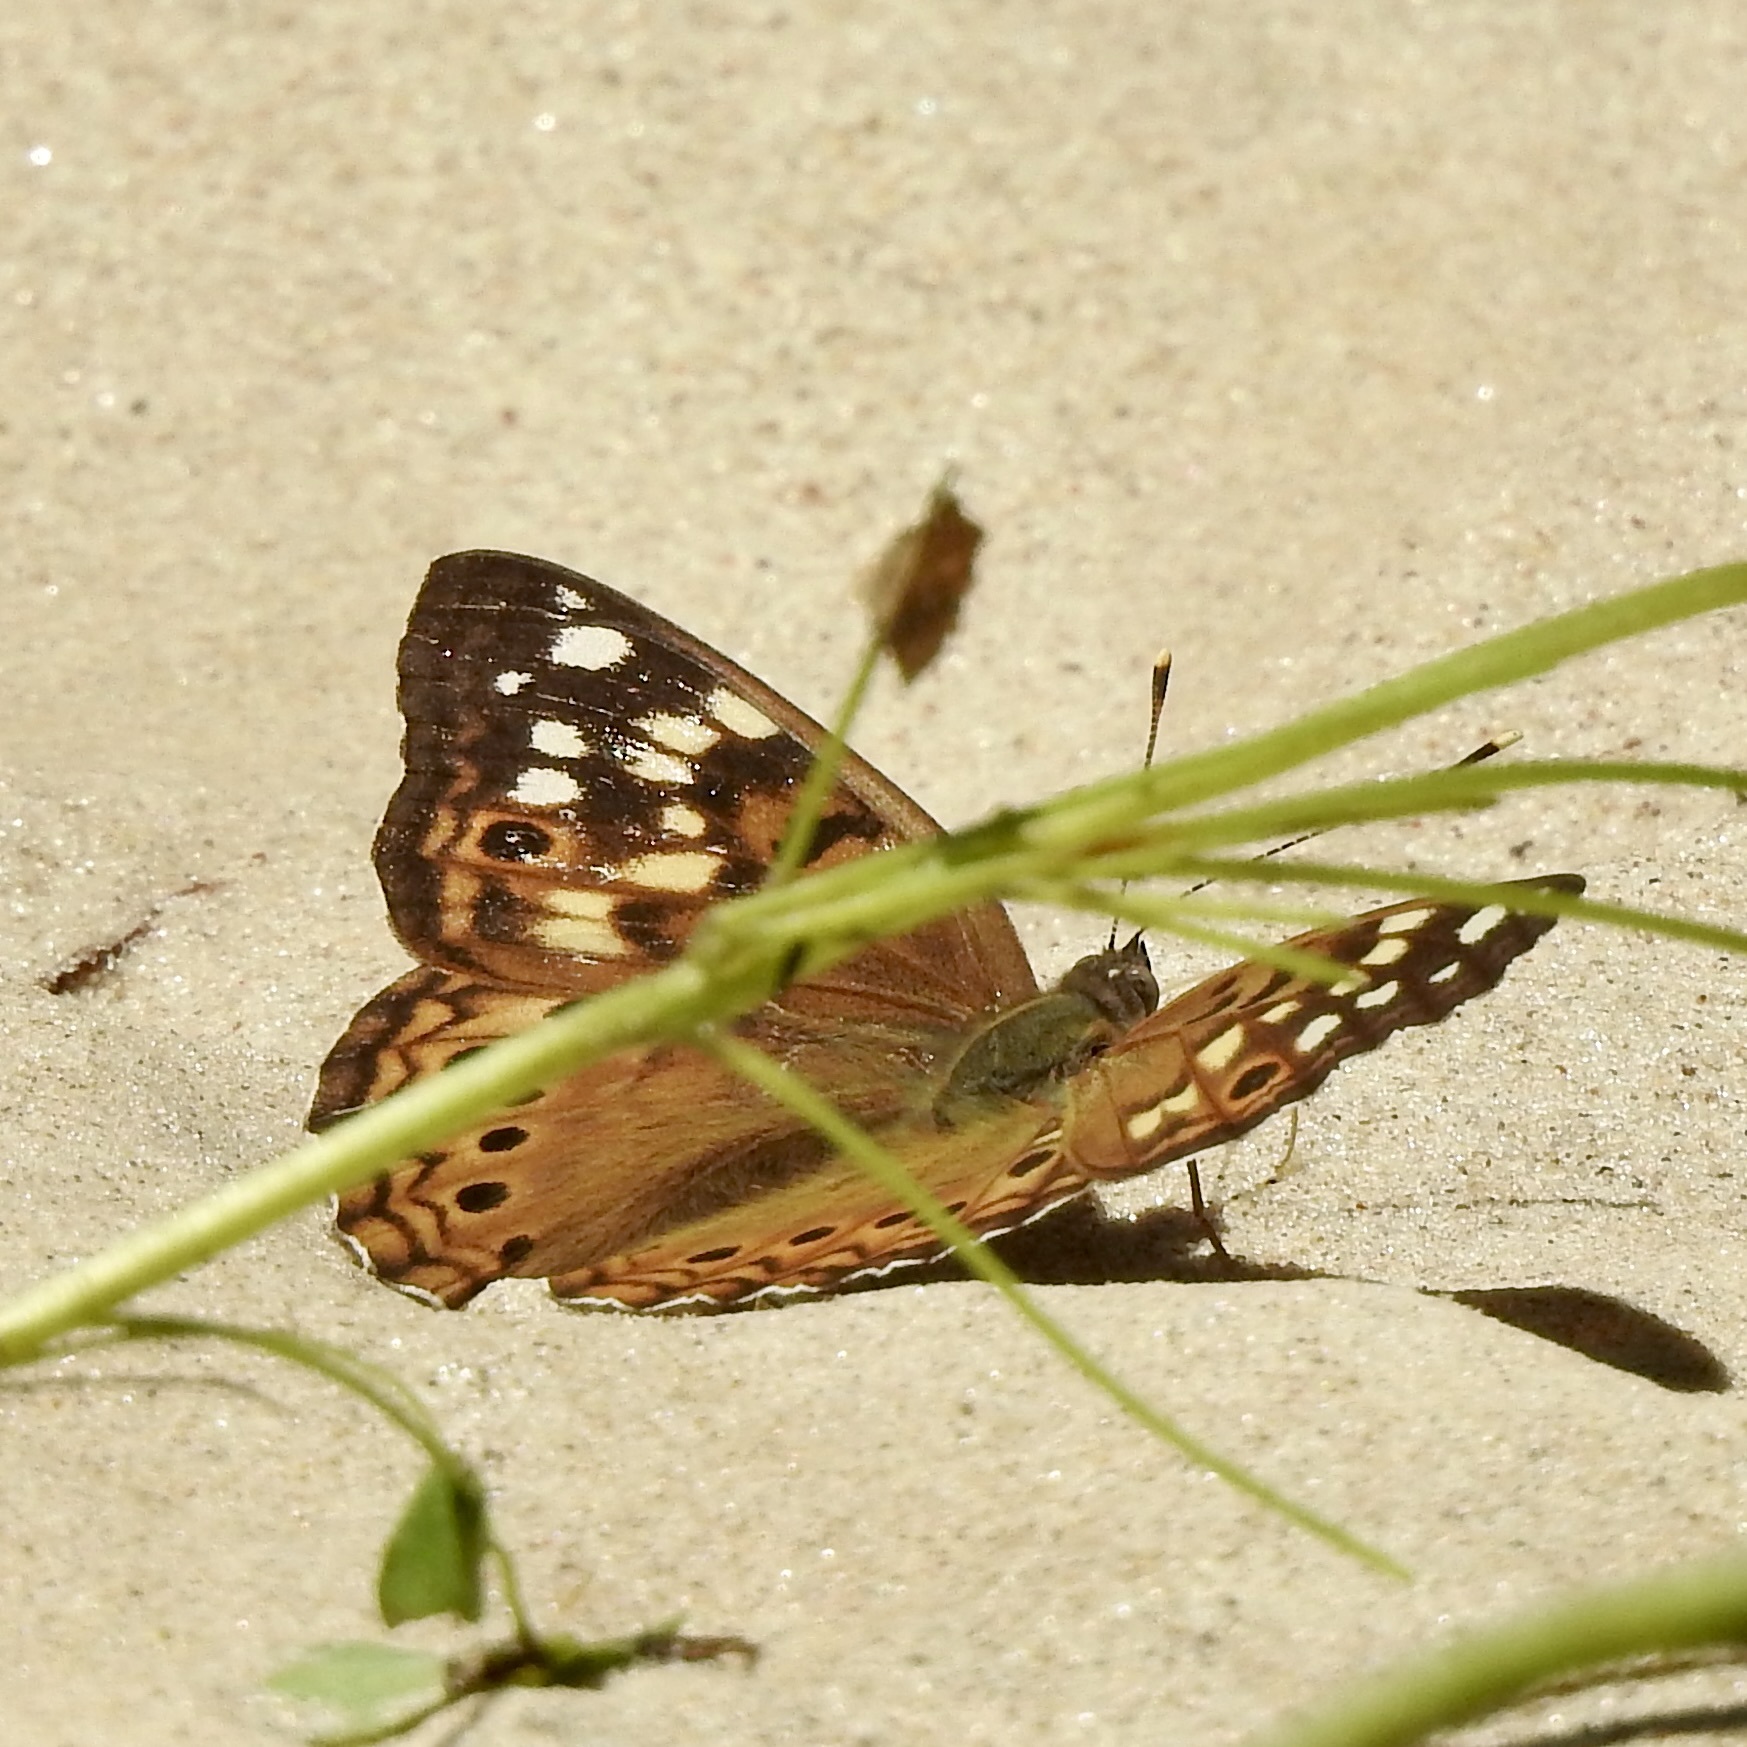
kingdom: Animalia
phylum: Arthropoda
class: Insecta
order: Lepidoptera
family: Nymphalidae
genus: Asterocampa
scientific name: Asterocampa celtis
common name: Hackberry emperor
